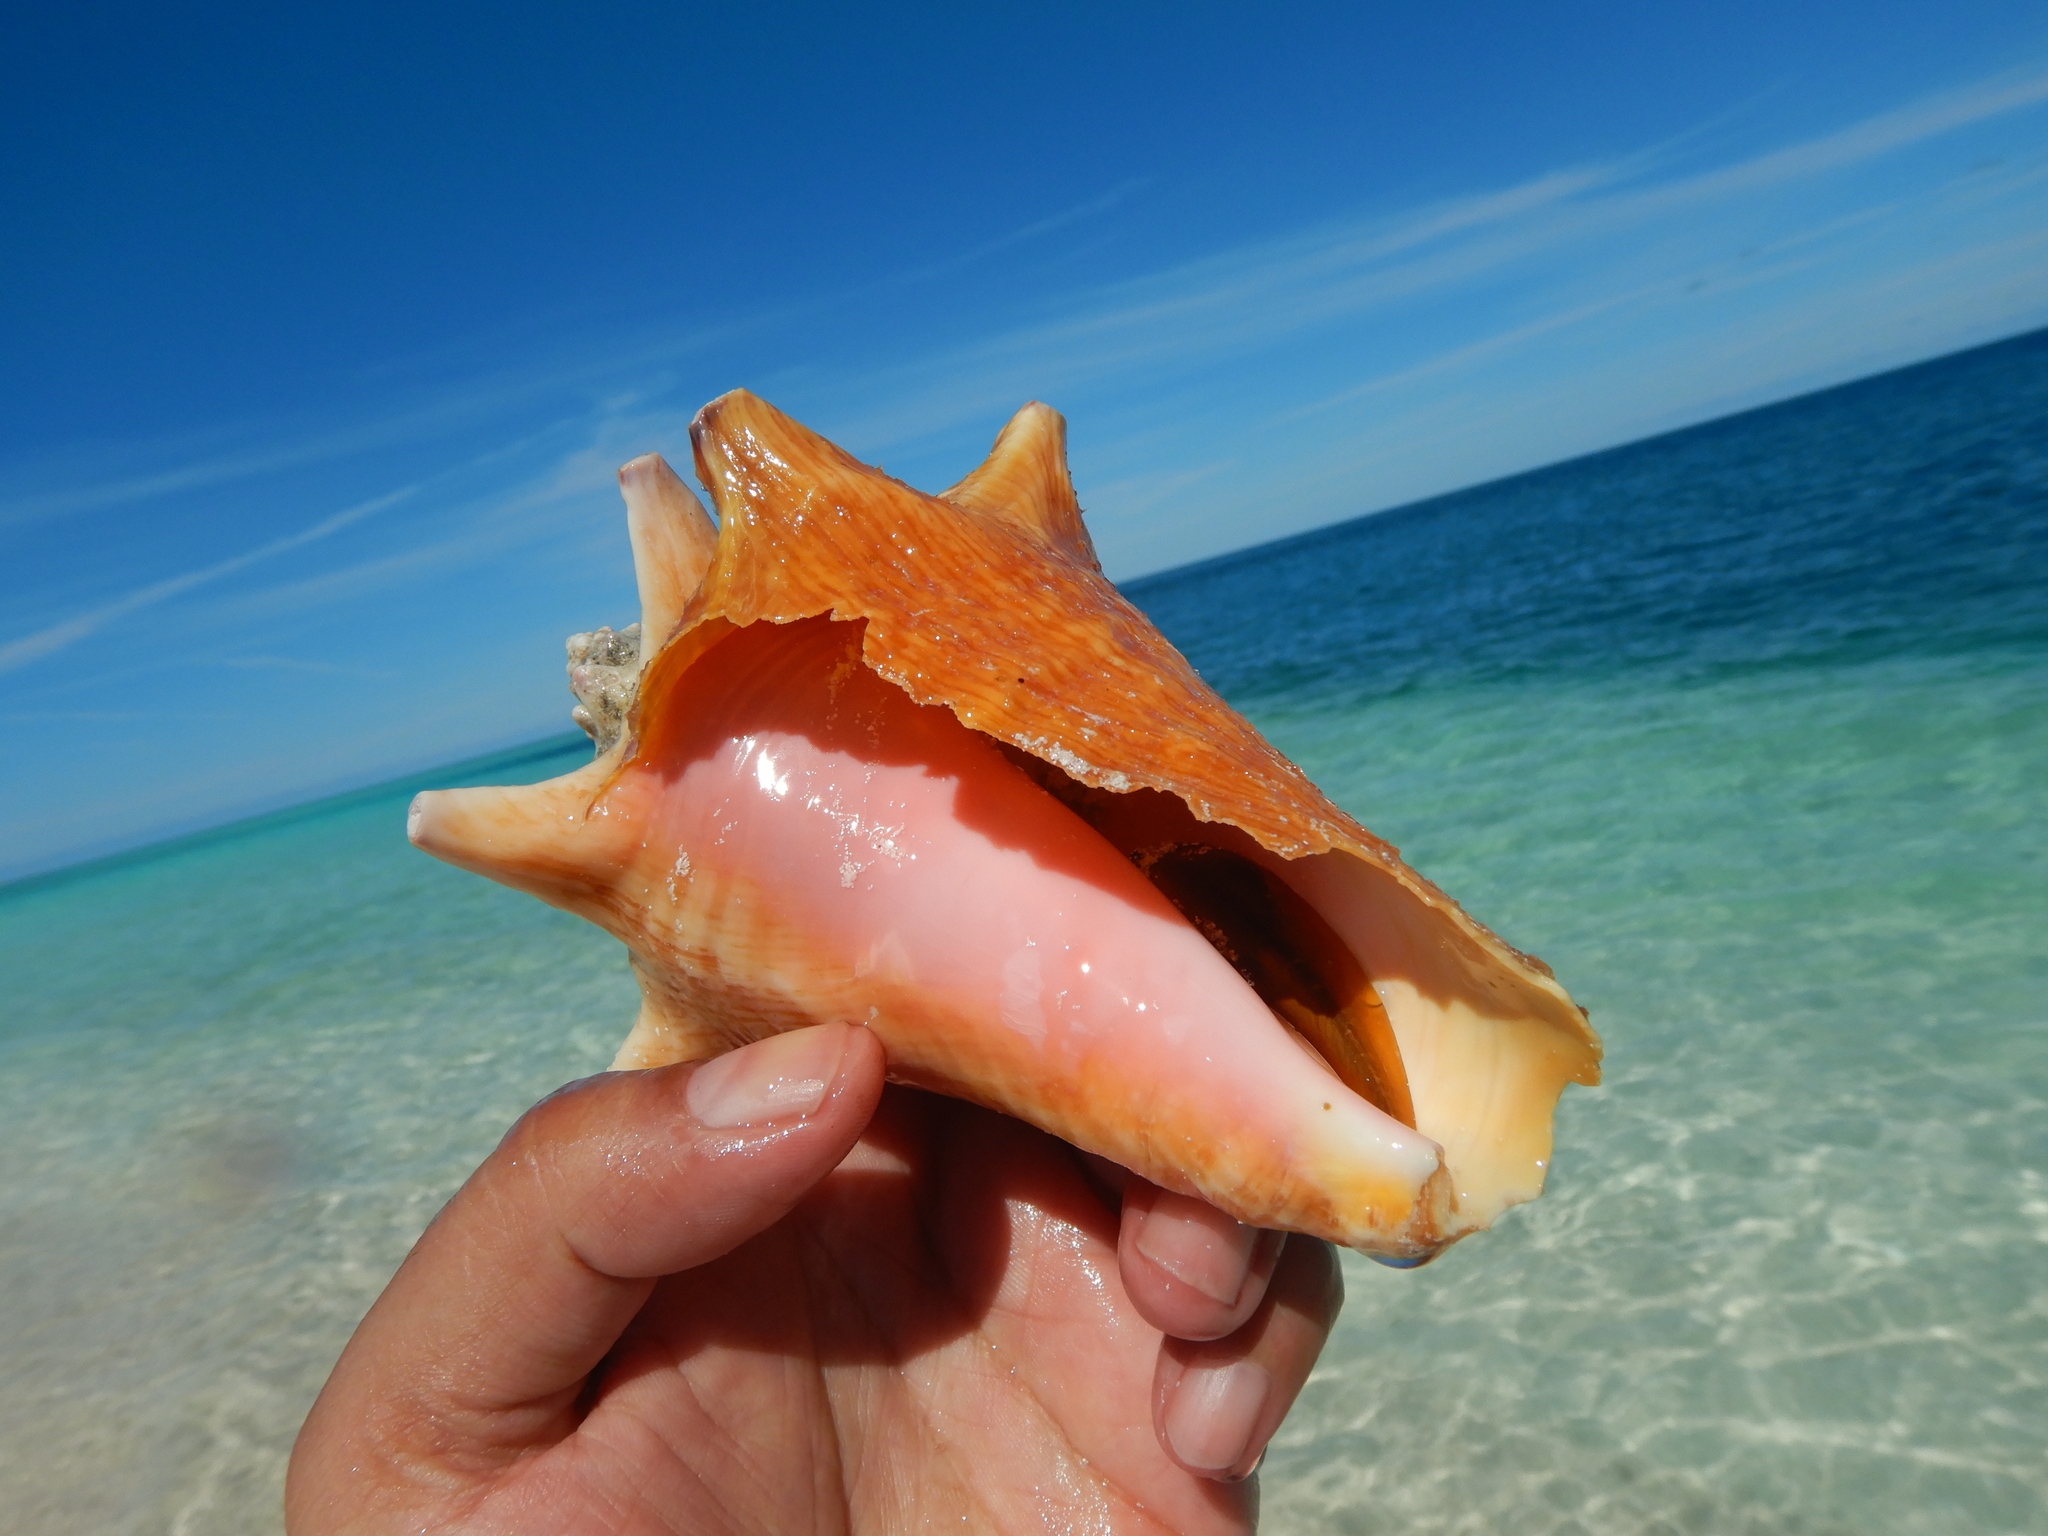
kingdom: Animalia
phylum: Mollusca
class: Gastropoda
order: Littorinimorpha
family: Strombidae
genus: Aliger
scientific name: Aliger gigas
